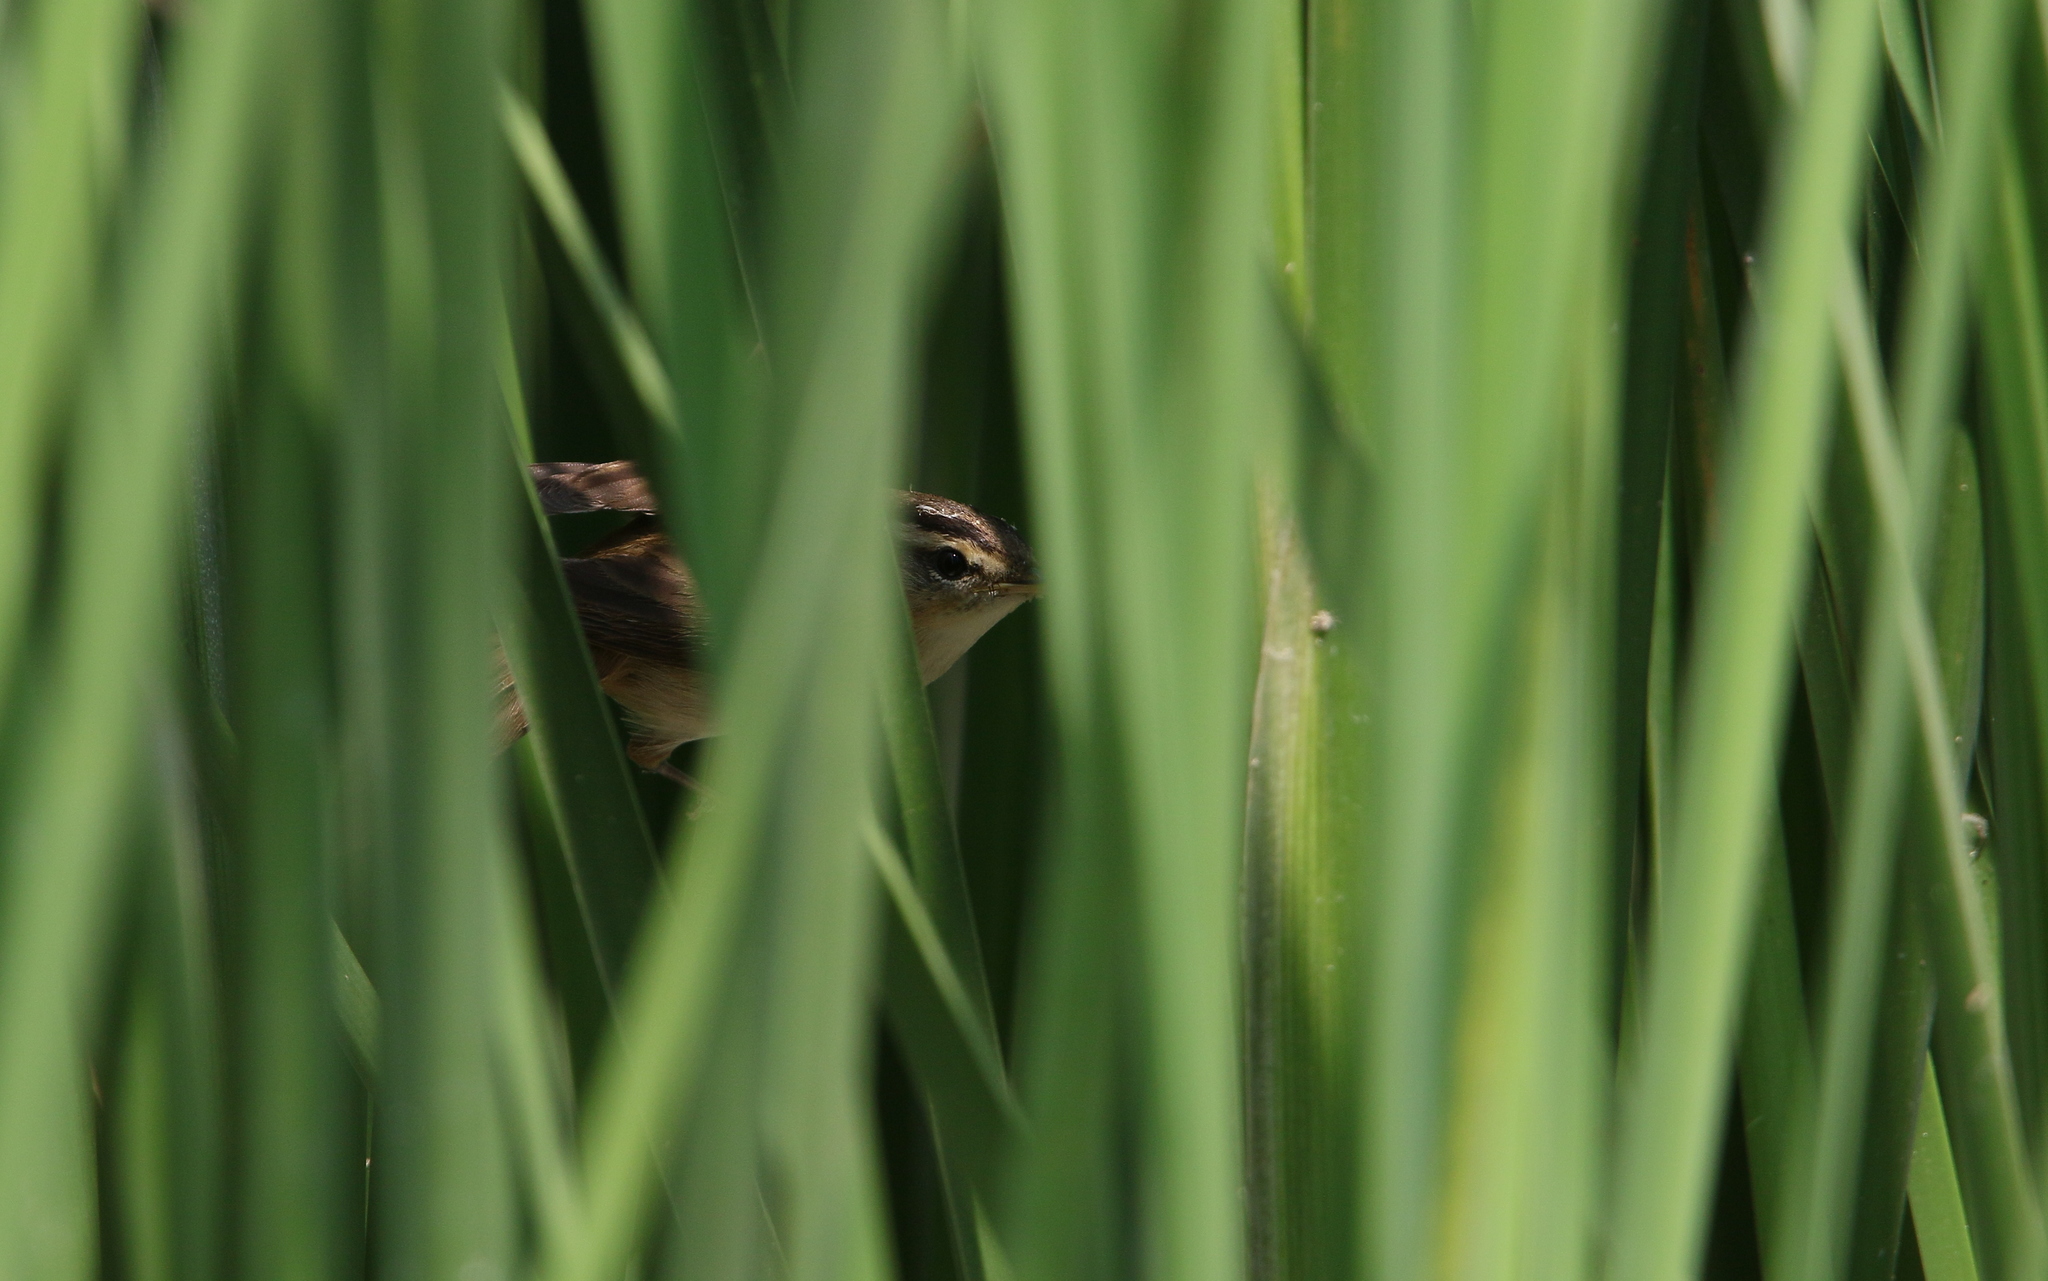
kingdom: Animalia
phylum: Chordata
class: Aves
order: Passeriformes
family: Acrocephalidae
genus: Acrocephalus
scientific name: Acrocephalus bistrigiceps
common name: Black-browed reed warbler
